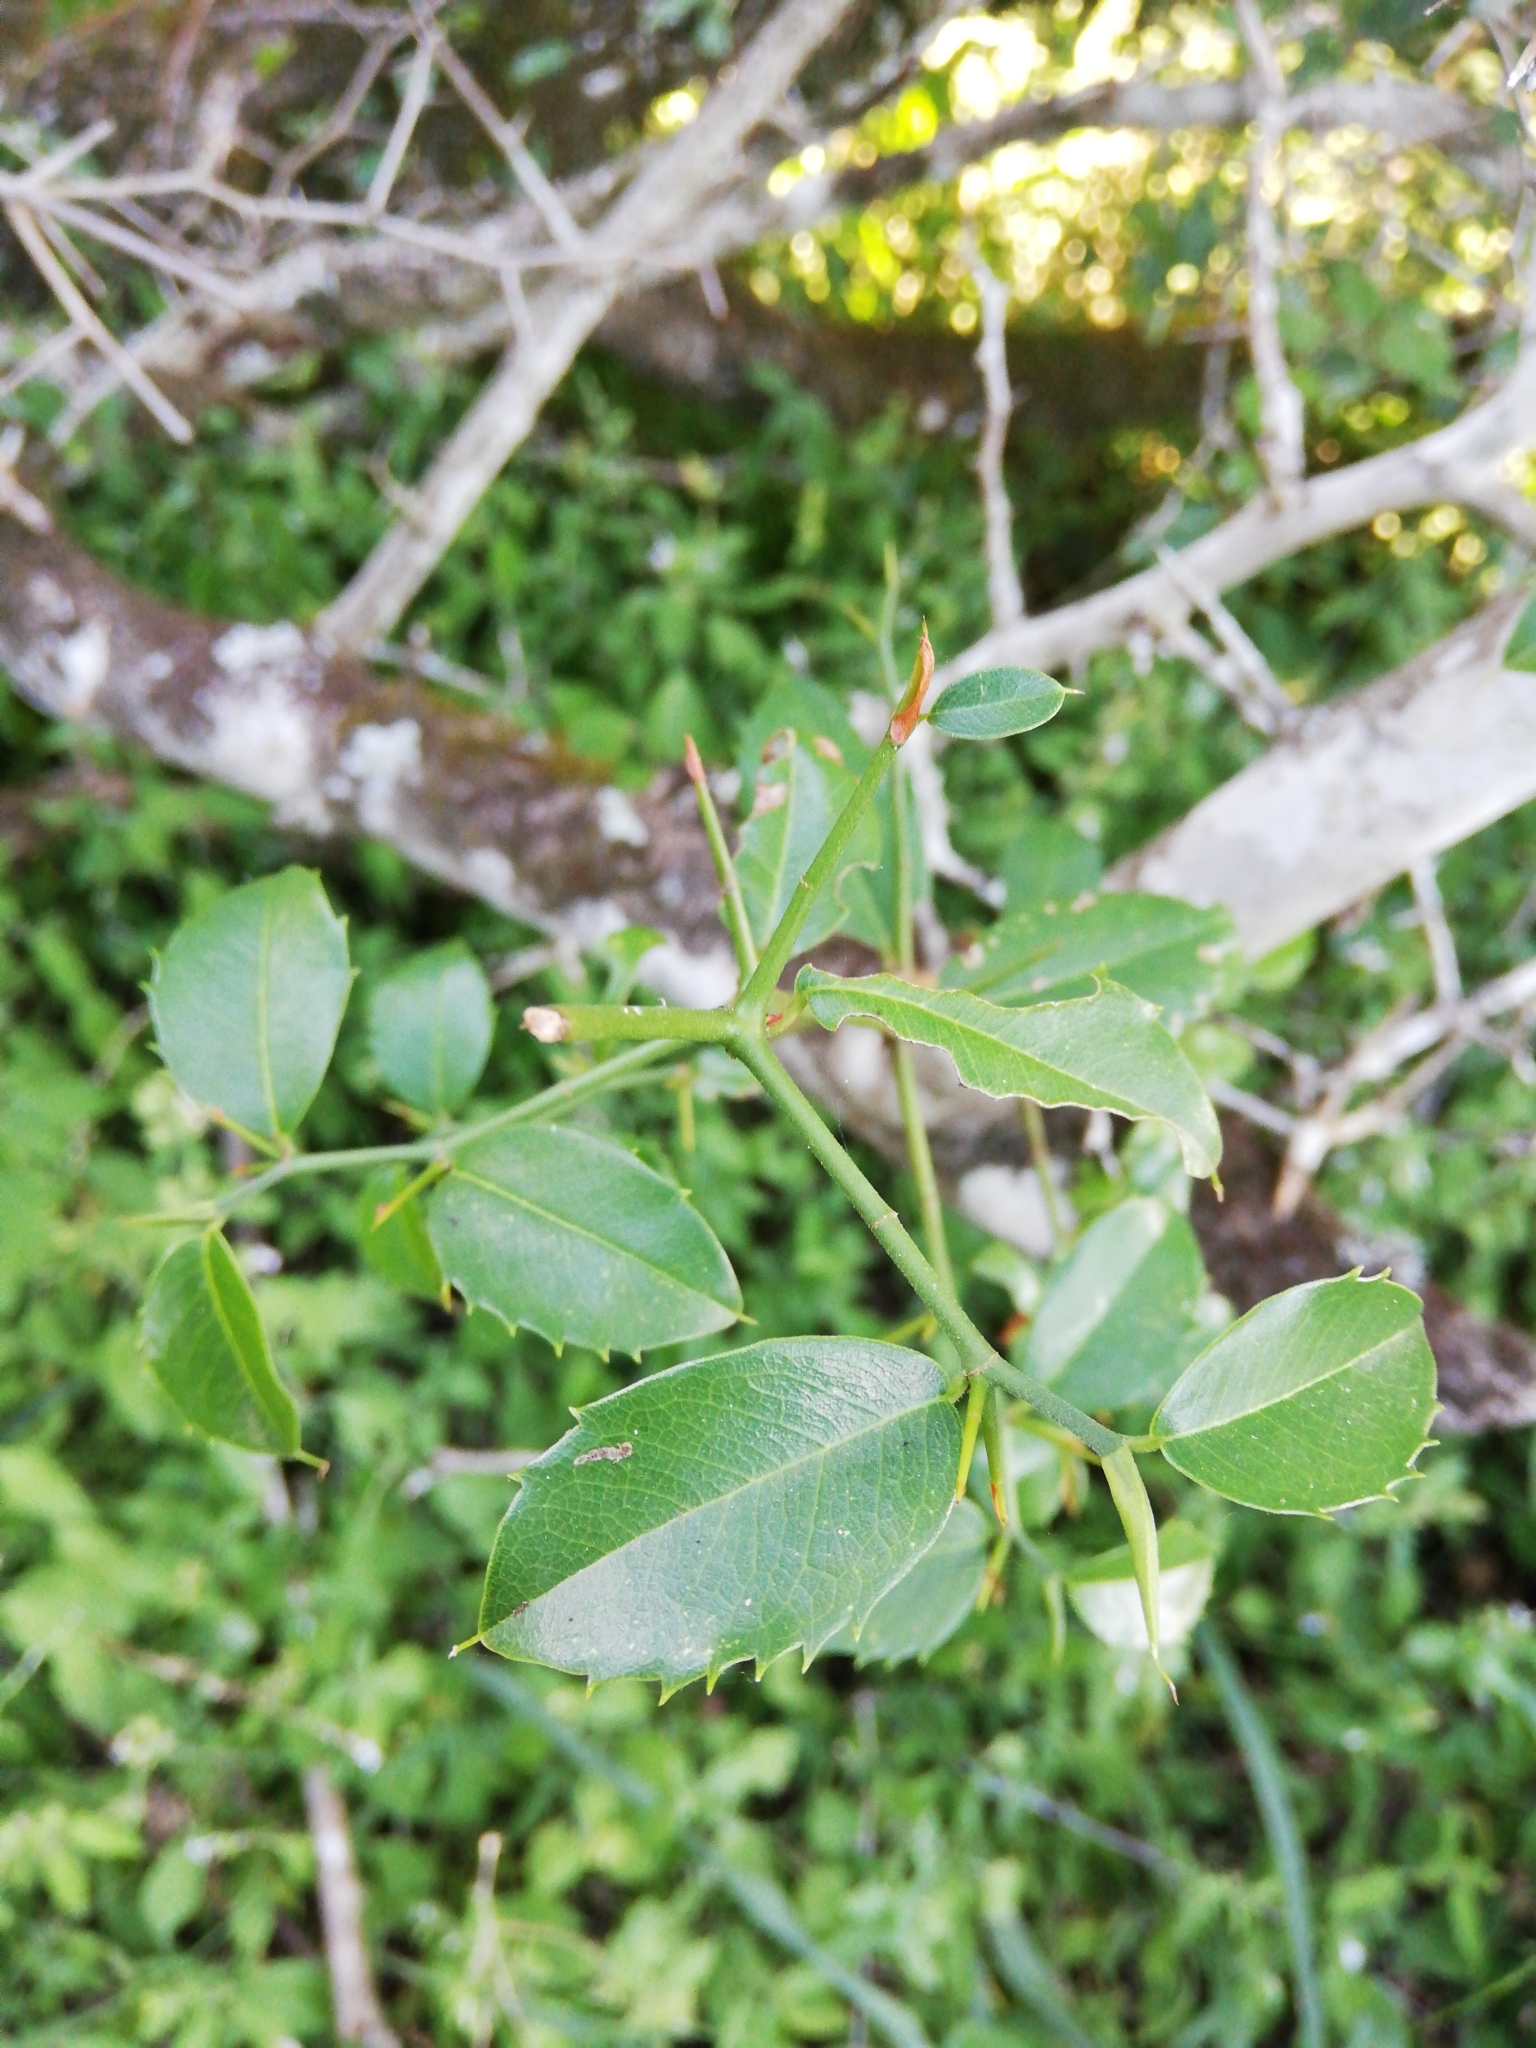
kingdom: Plantae
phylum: Tracheophyta
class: Magnoliopsida
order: Rosales
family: Cannabaceae
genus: Chaetachme
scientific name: Chaetachme aristata
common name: Thorny elm
